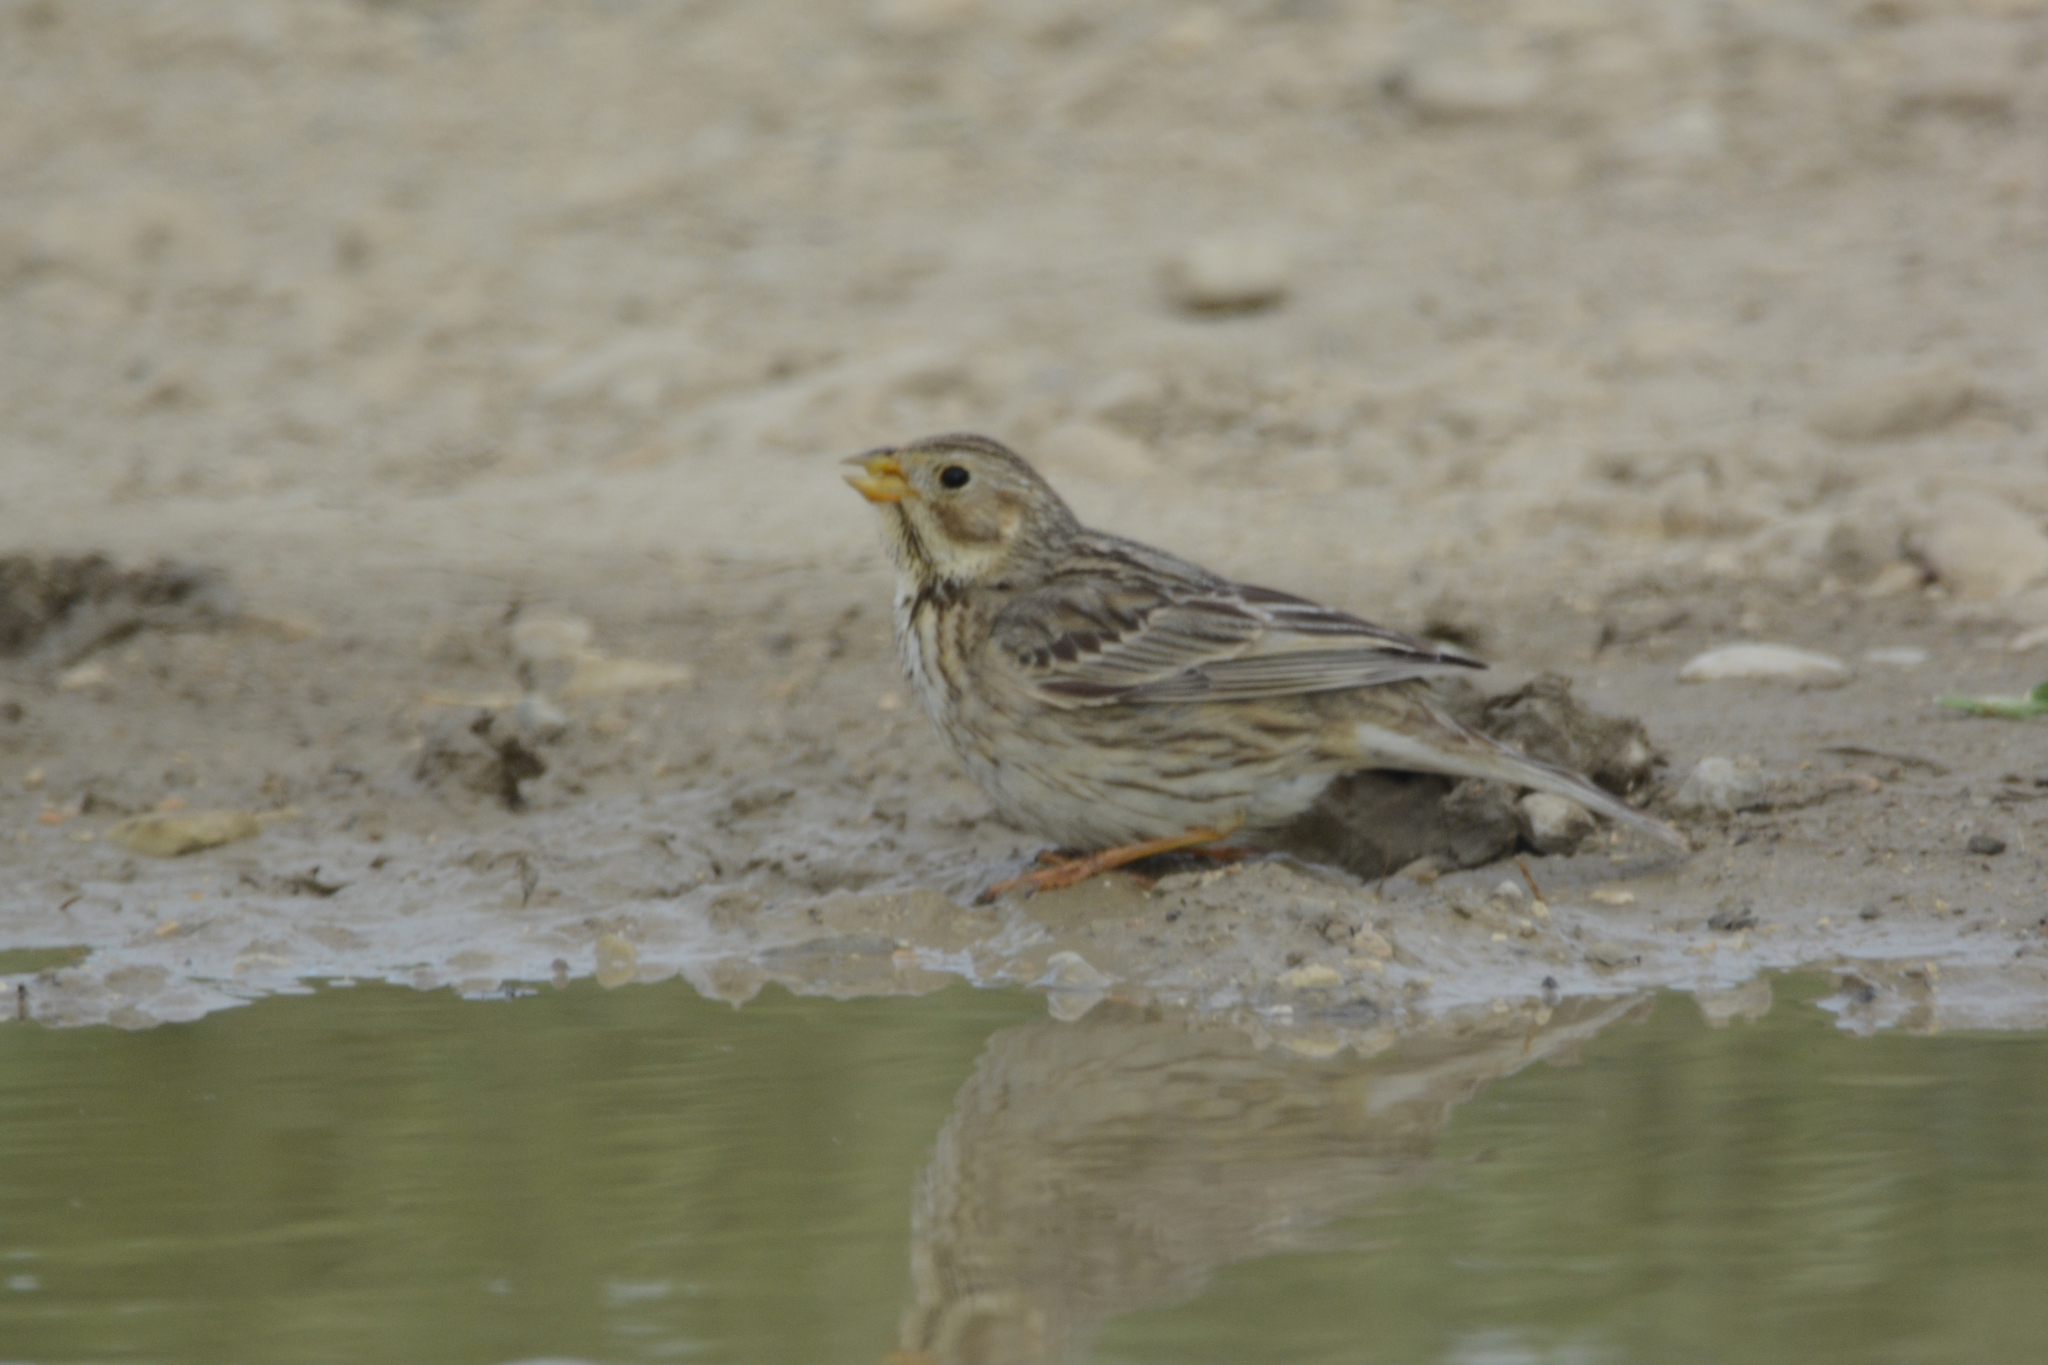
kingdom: Animalia
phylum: Chordata
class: Aves
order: Passeriformes
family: Emberizidae
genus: Emberiza
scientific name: Emberiza calandra
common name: Corn bunting
